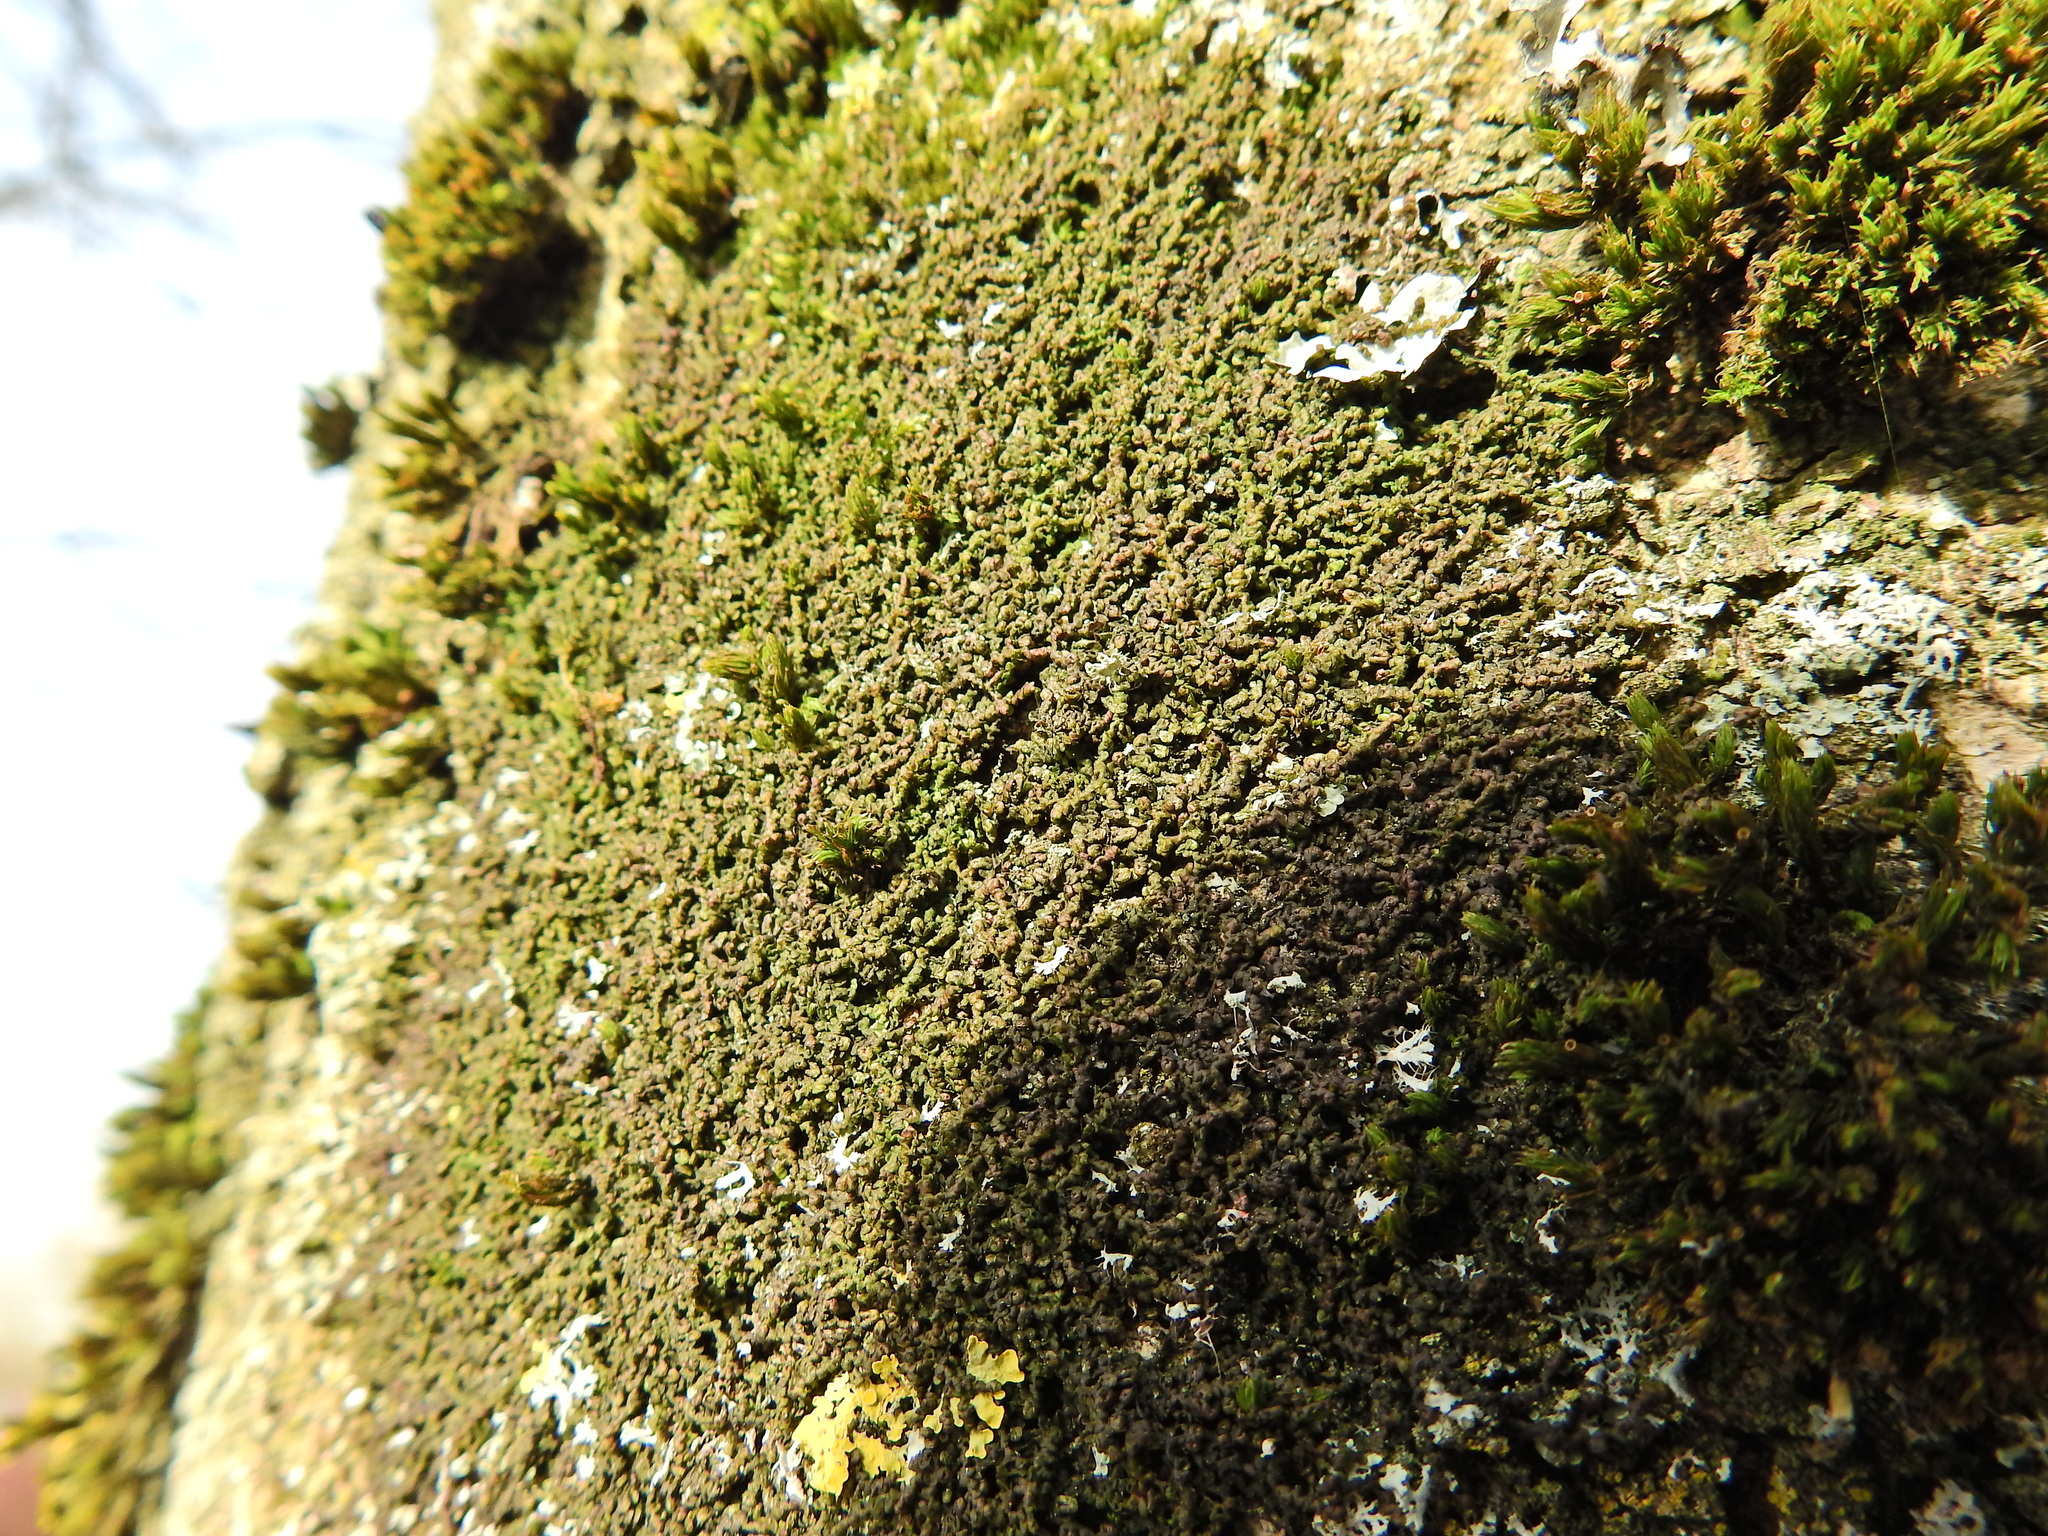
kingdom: Plantae
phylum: Marchantiophyta
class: Jungermanniopsida
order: Porellales
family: Frullaniaceae
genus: Frullania
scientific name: Frullania dilatata
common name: Dilated scalewort
